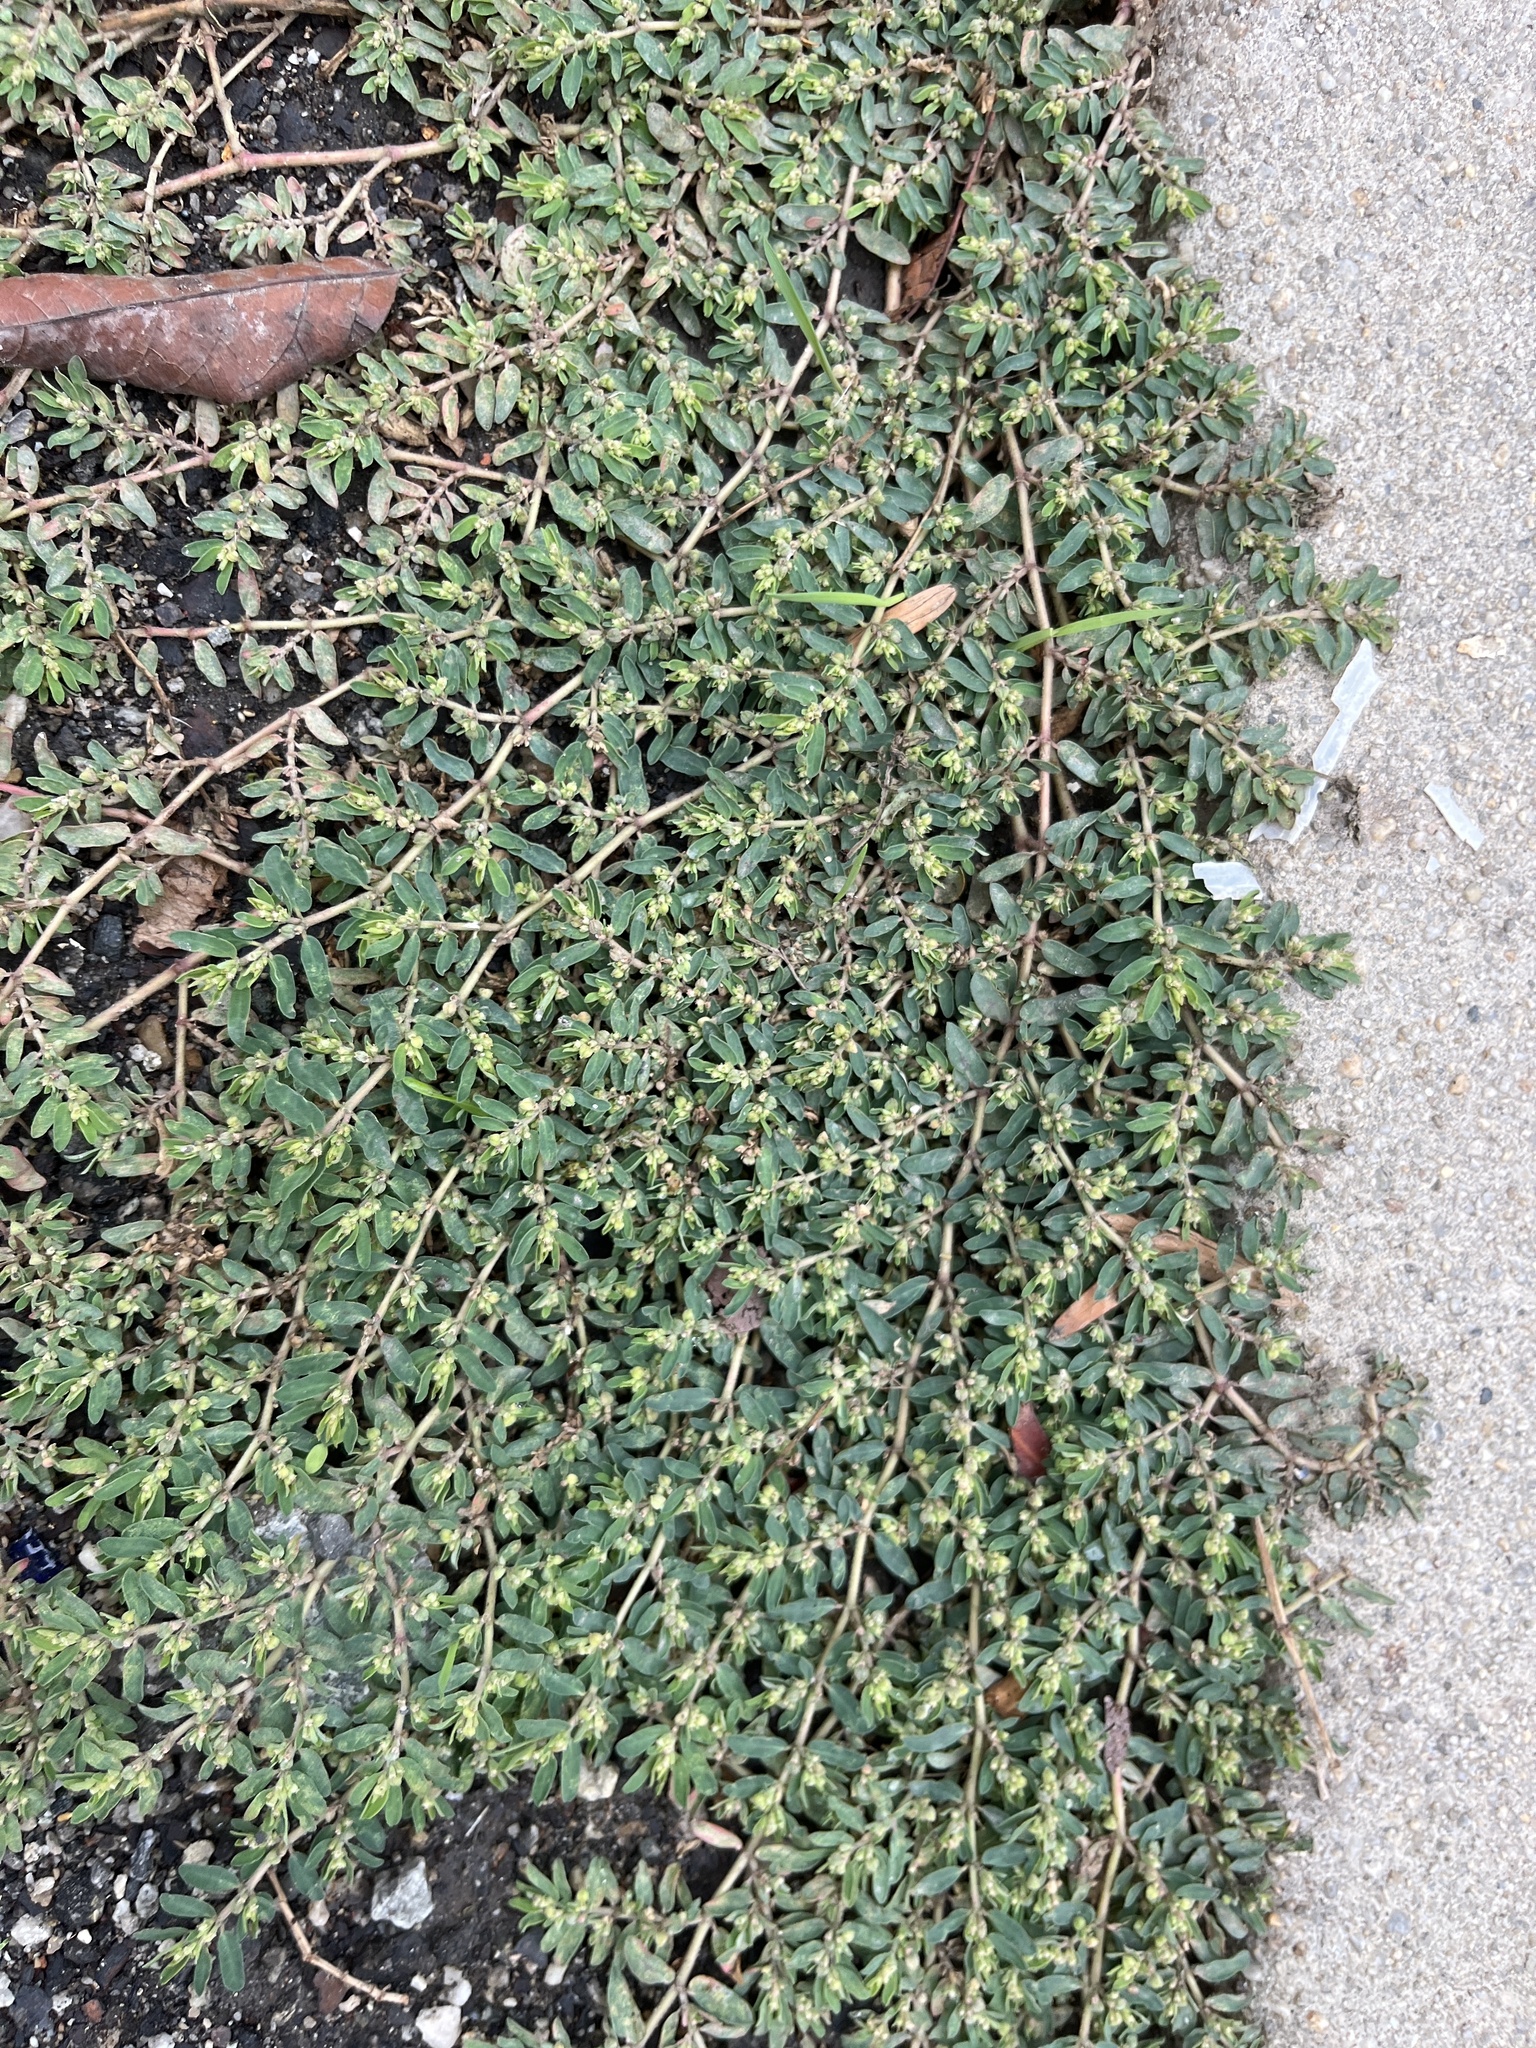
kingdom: Plantae
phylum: Tracheophyta
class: Magnoliopsida
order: Malpighiales
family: Euphorbiaceae
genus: Euphorbia
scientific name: Euphorbia maculata
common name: Spotted spurge
